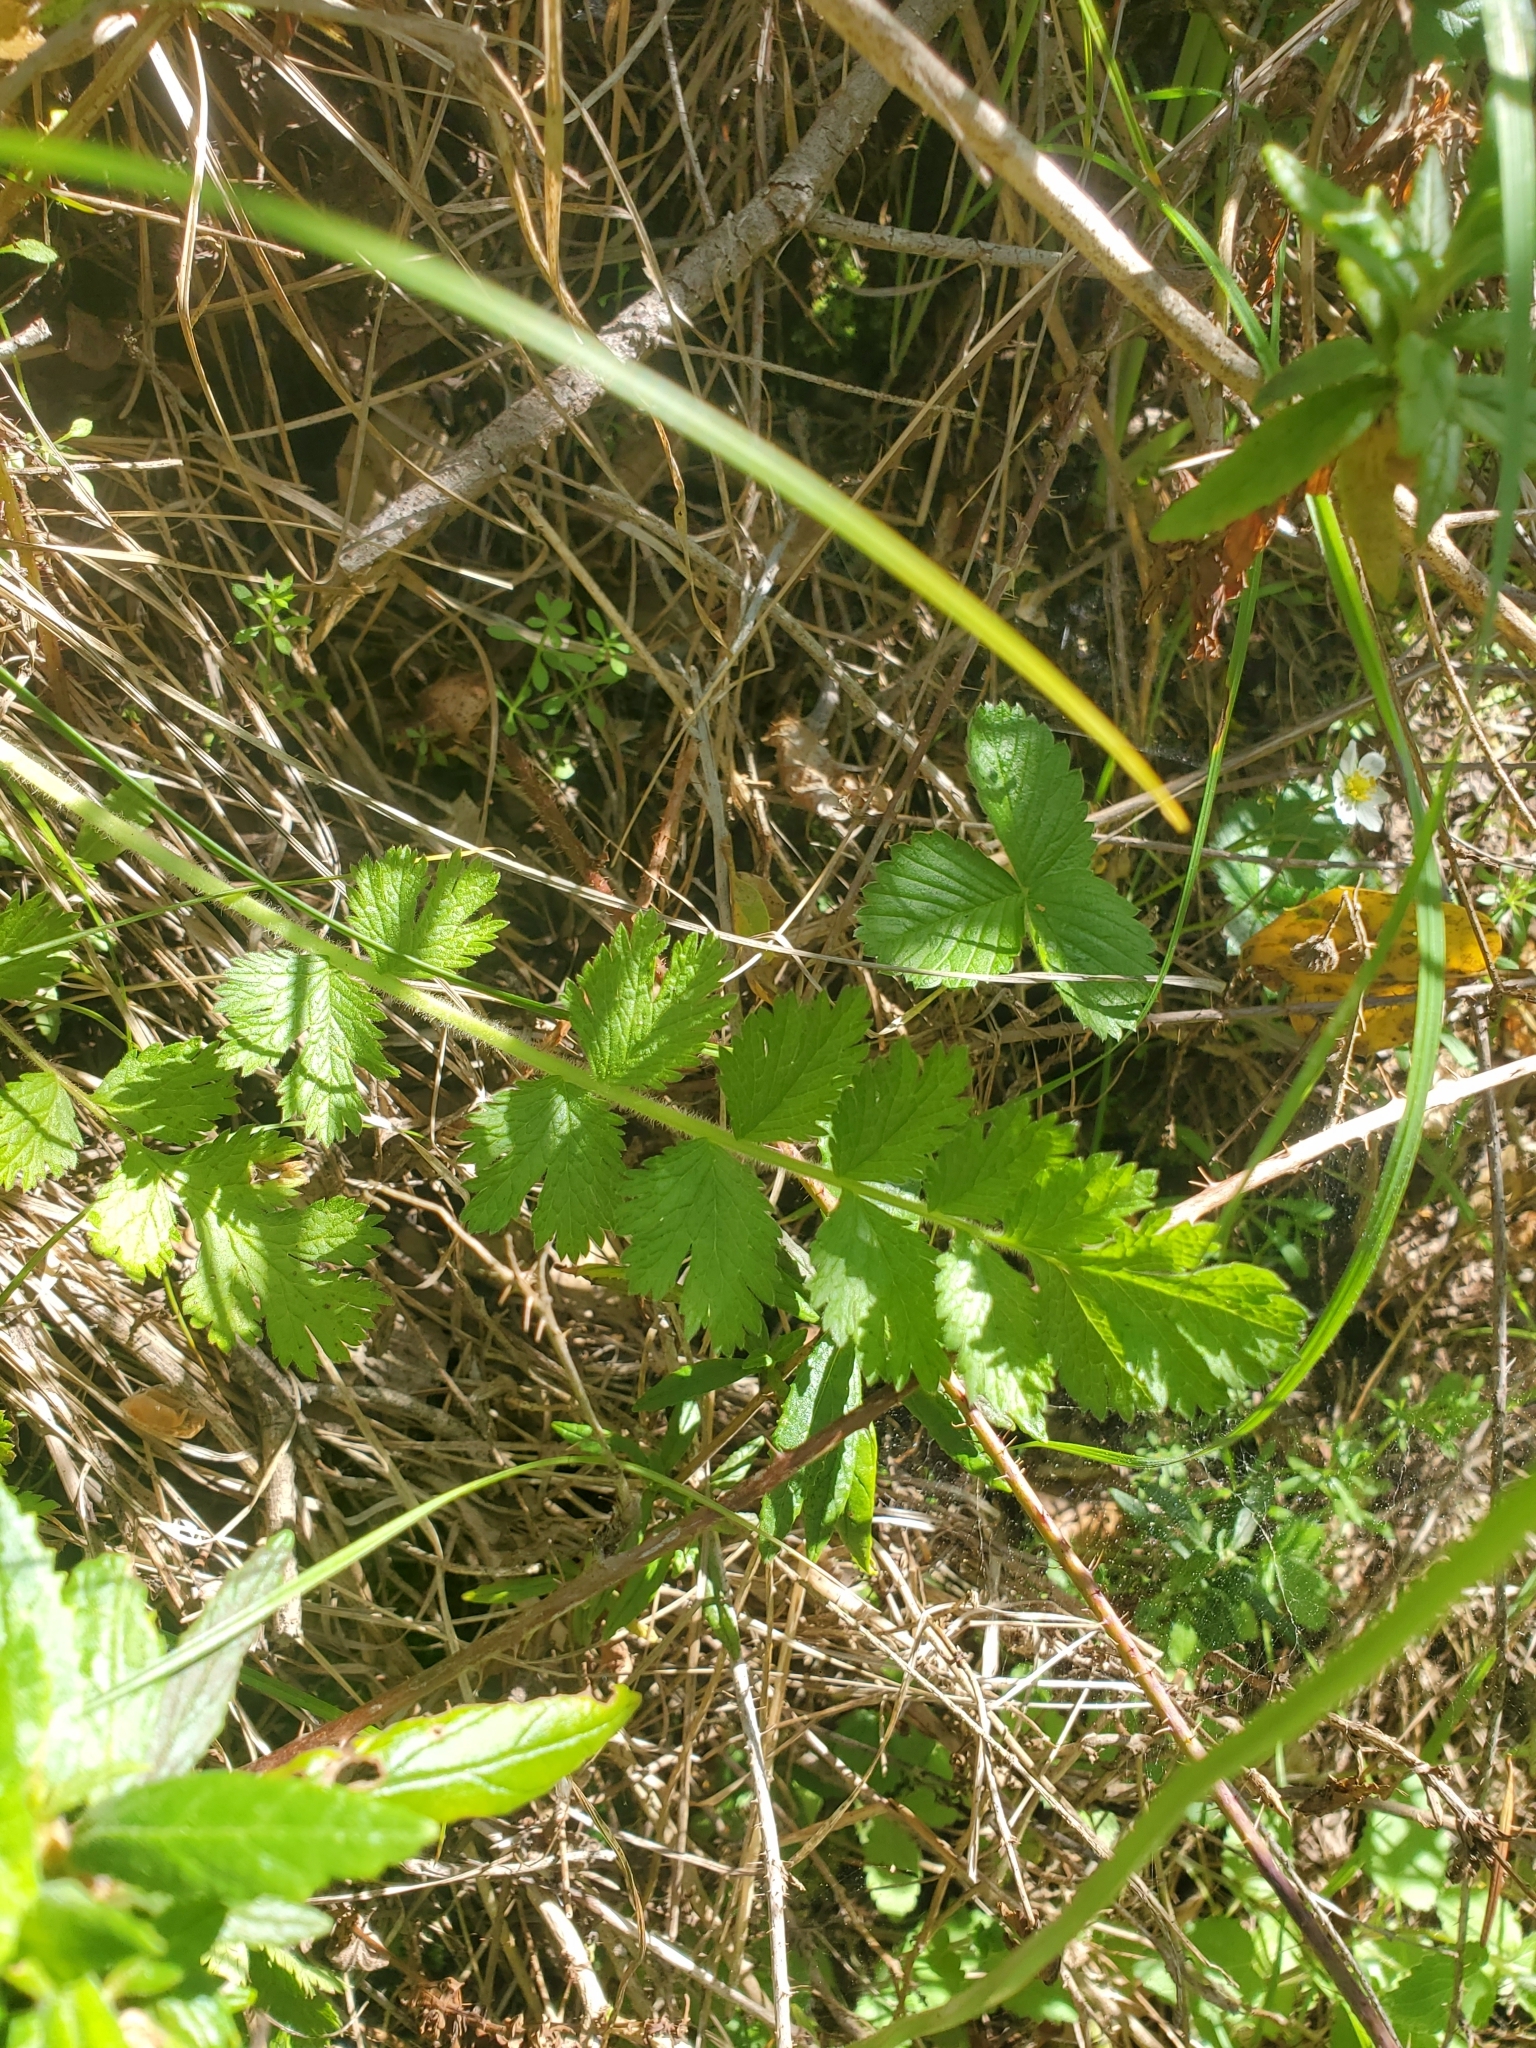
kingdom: Plantae
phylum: Tracheophyta
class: Magnoliopsida
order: Rosales
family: Rosaceae
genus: Potentilla
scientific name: Potentilla californica
